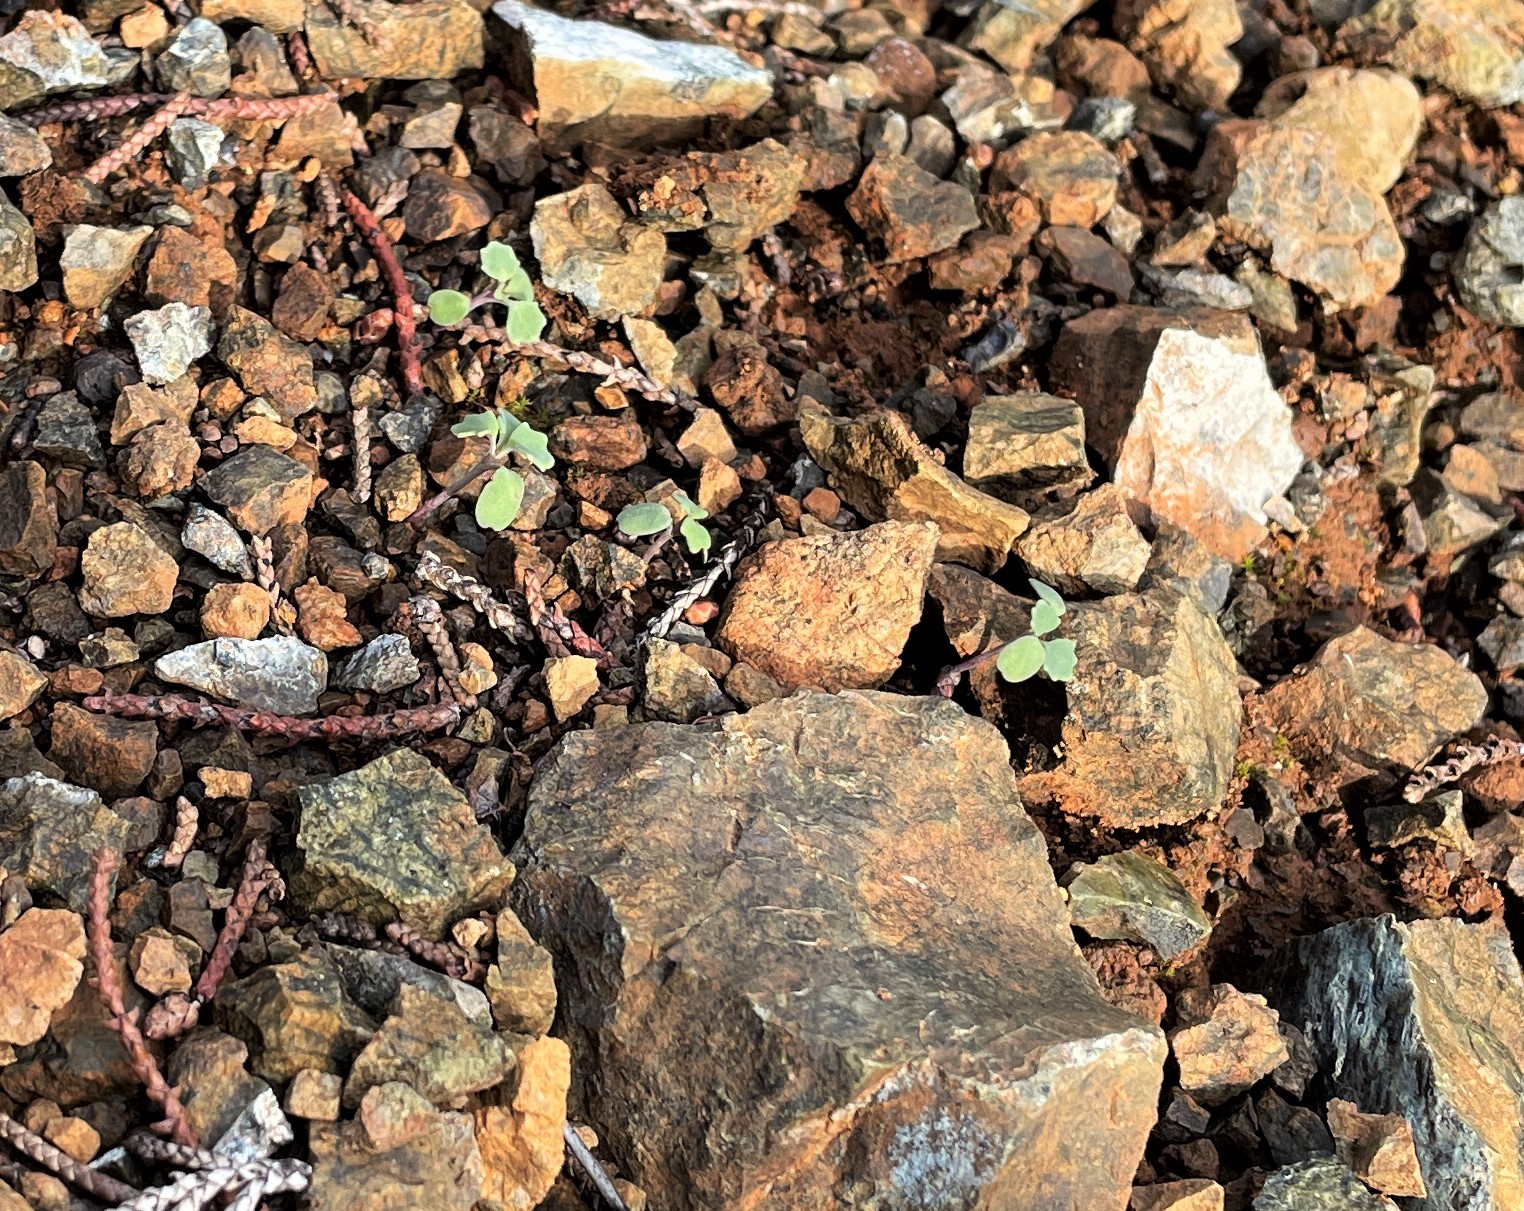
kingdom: Plantae
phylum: Tracheophyta
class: Magnoliopsida
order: Brassicales
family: Brassicaceae
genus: Streptanthus
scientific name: Streptanthus morrisonii
